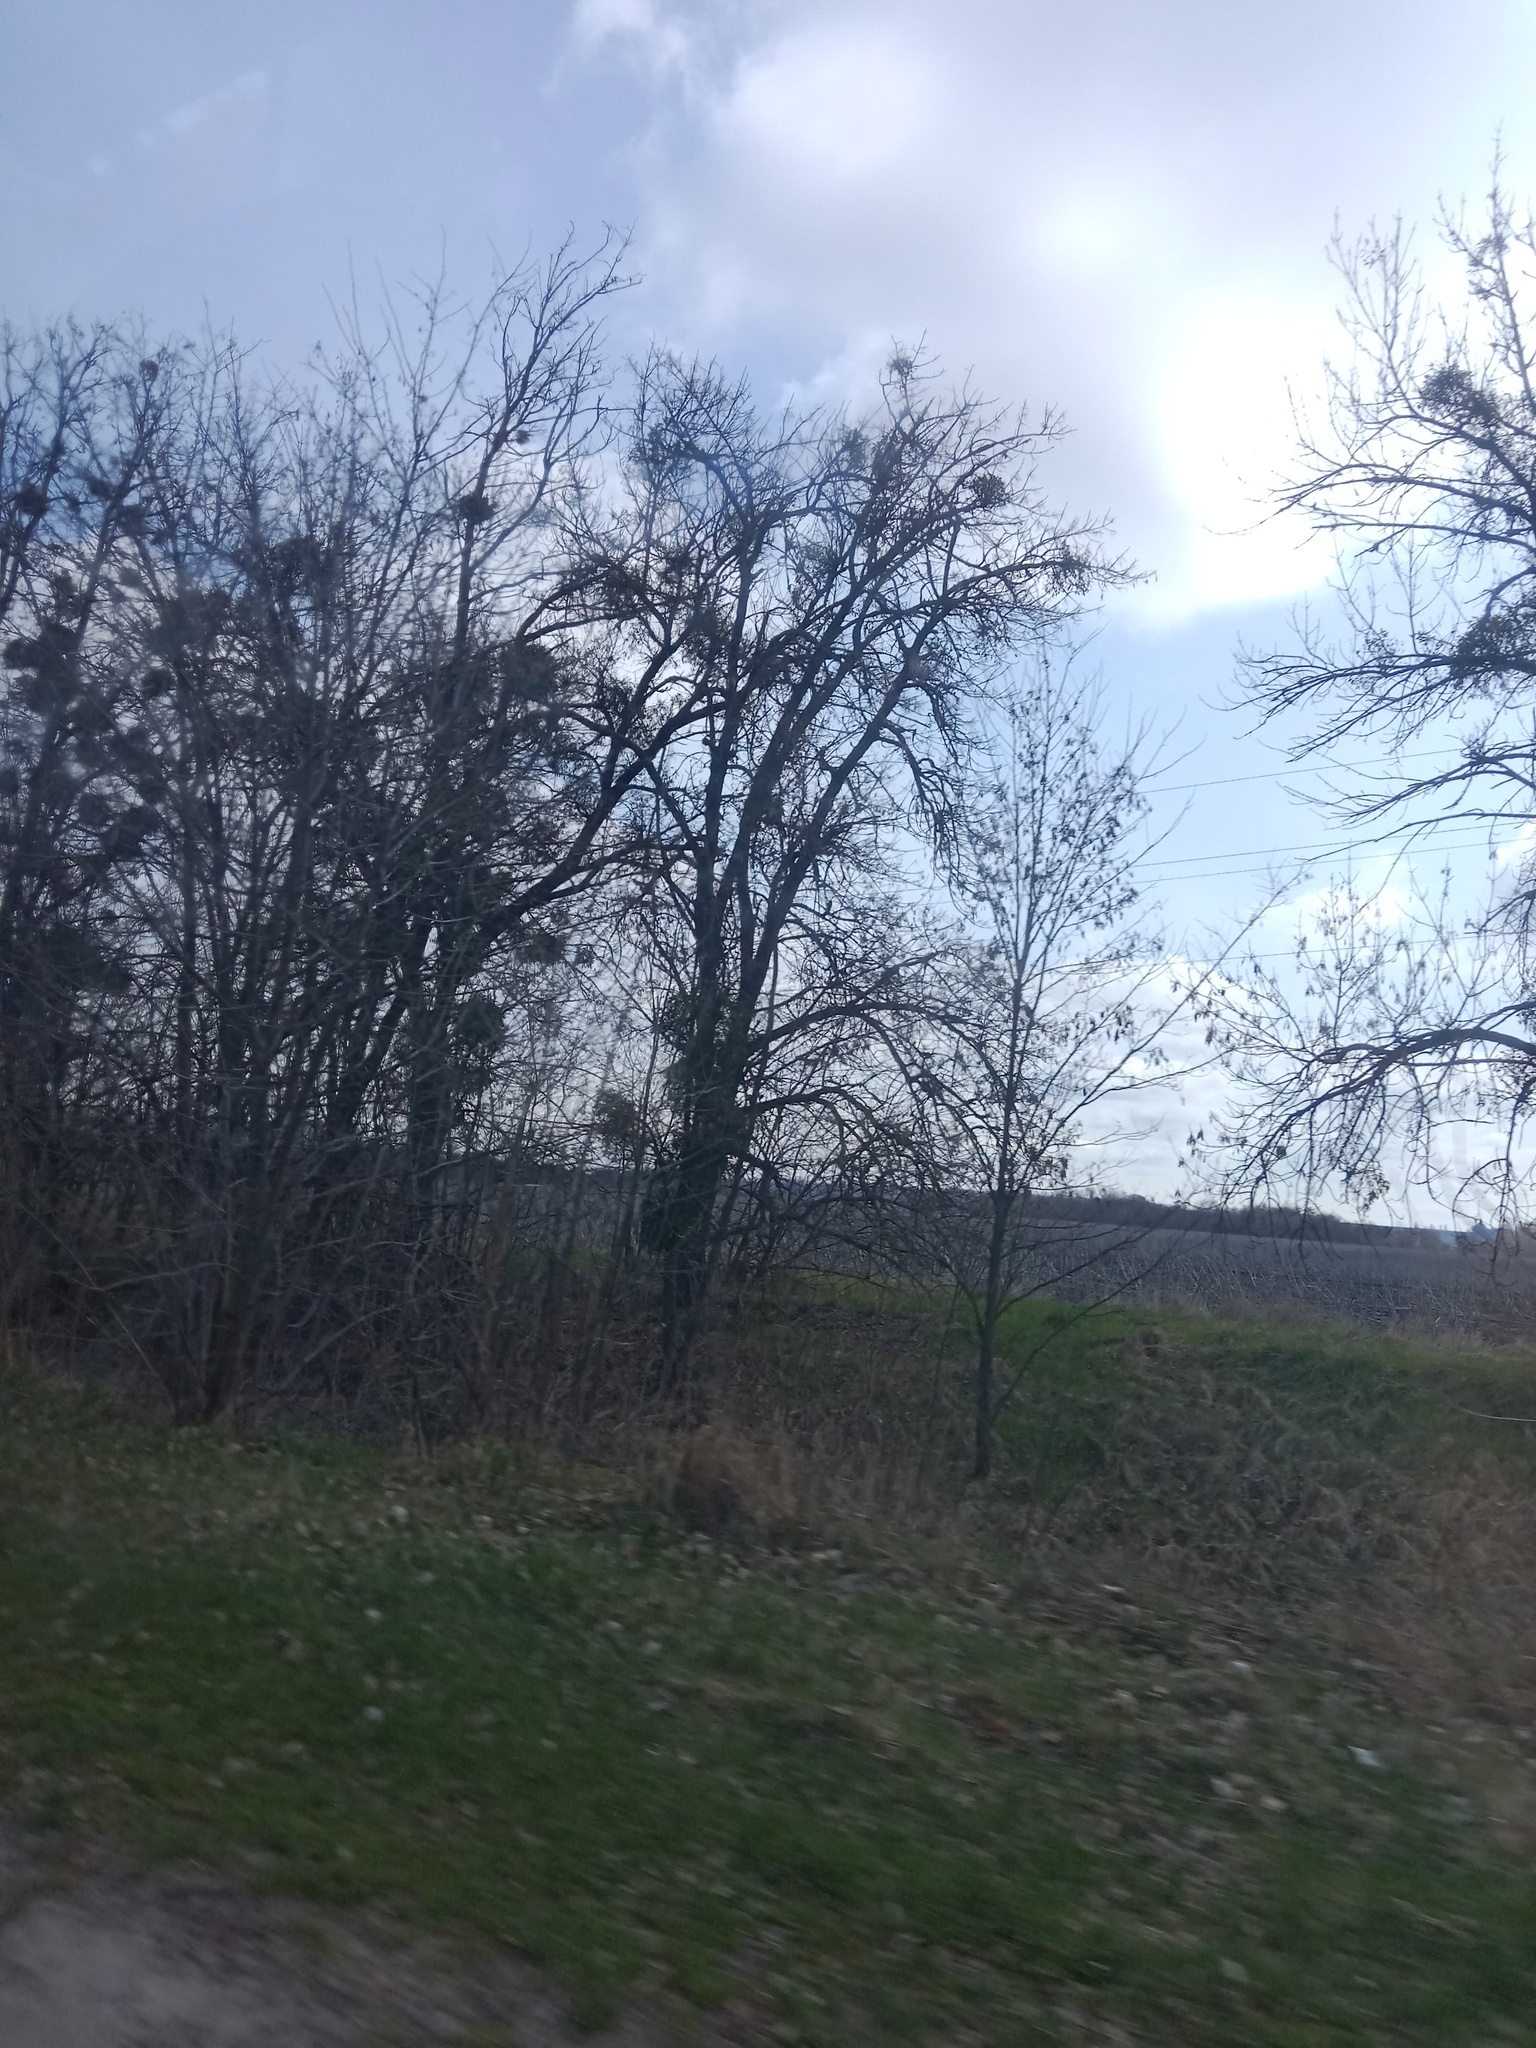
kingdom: Plantae
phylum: Tracheophyta
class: Magnoliopsida
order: Santalales
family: Viscaceae
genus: Viscum
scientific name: Viscum album
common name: Mistletoe
